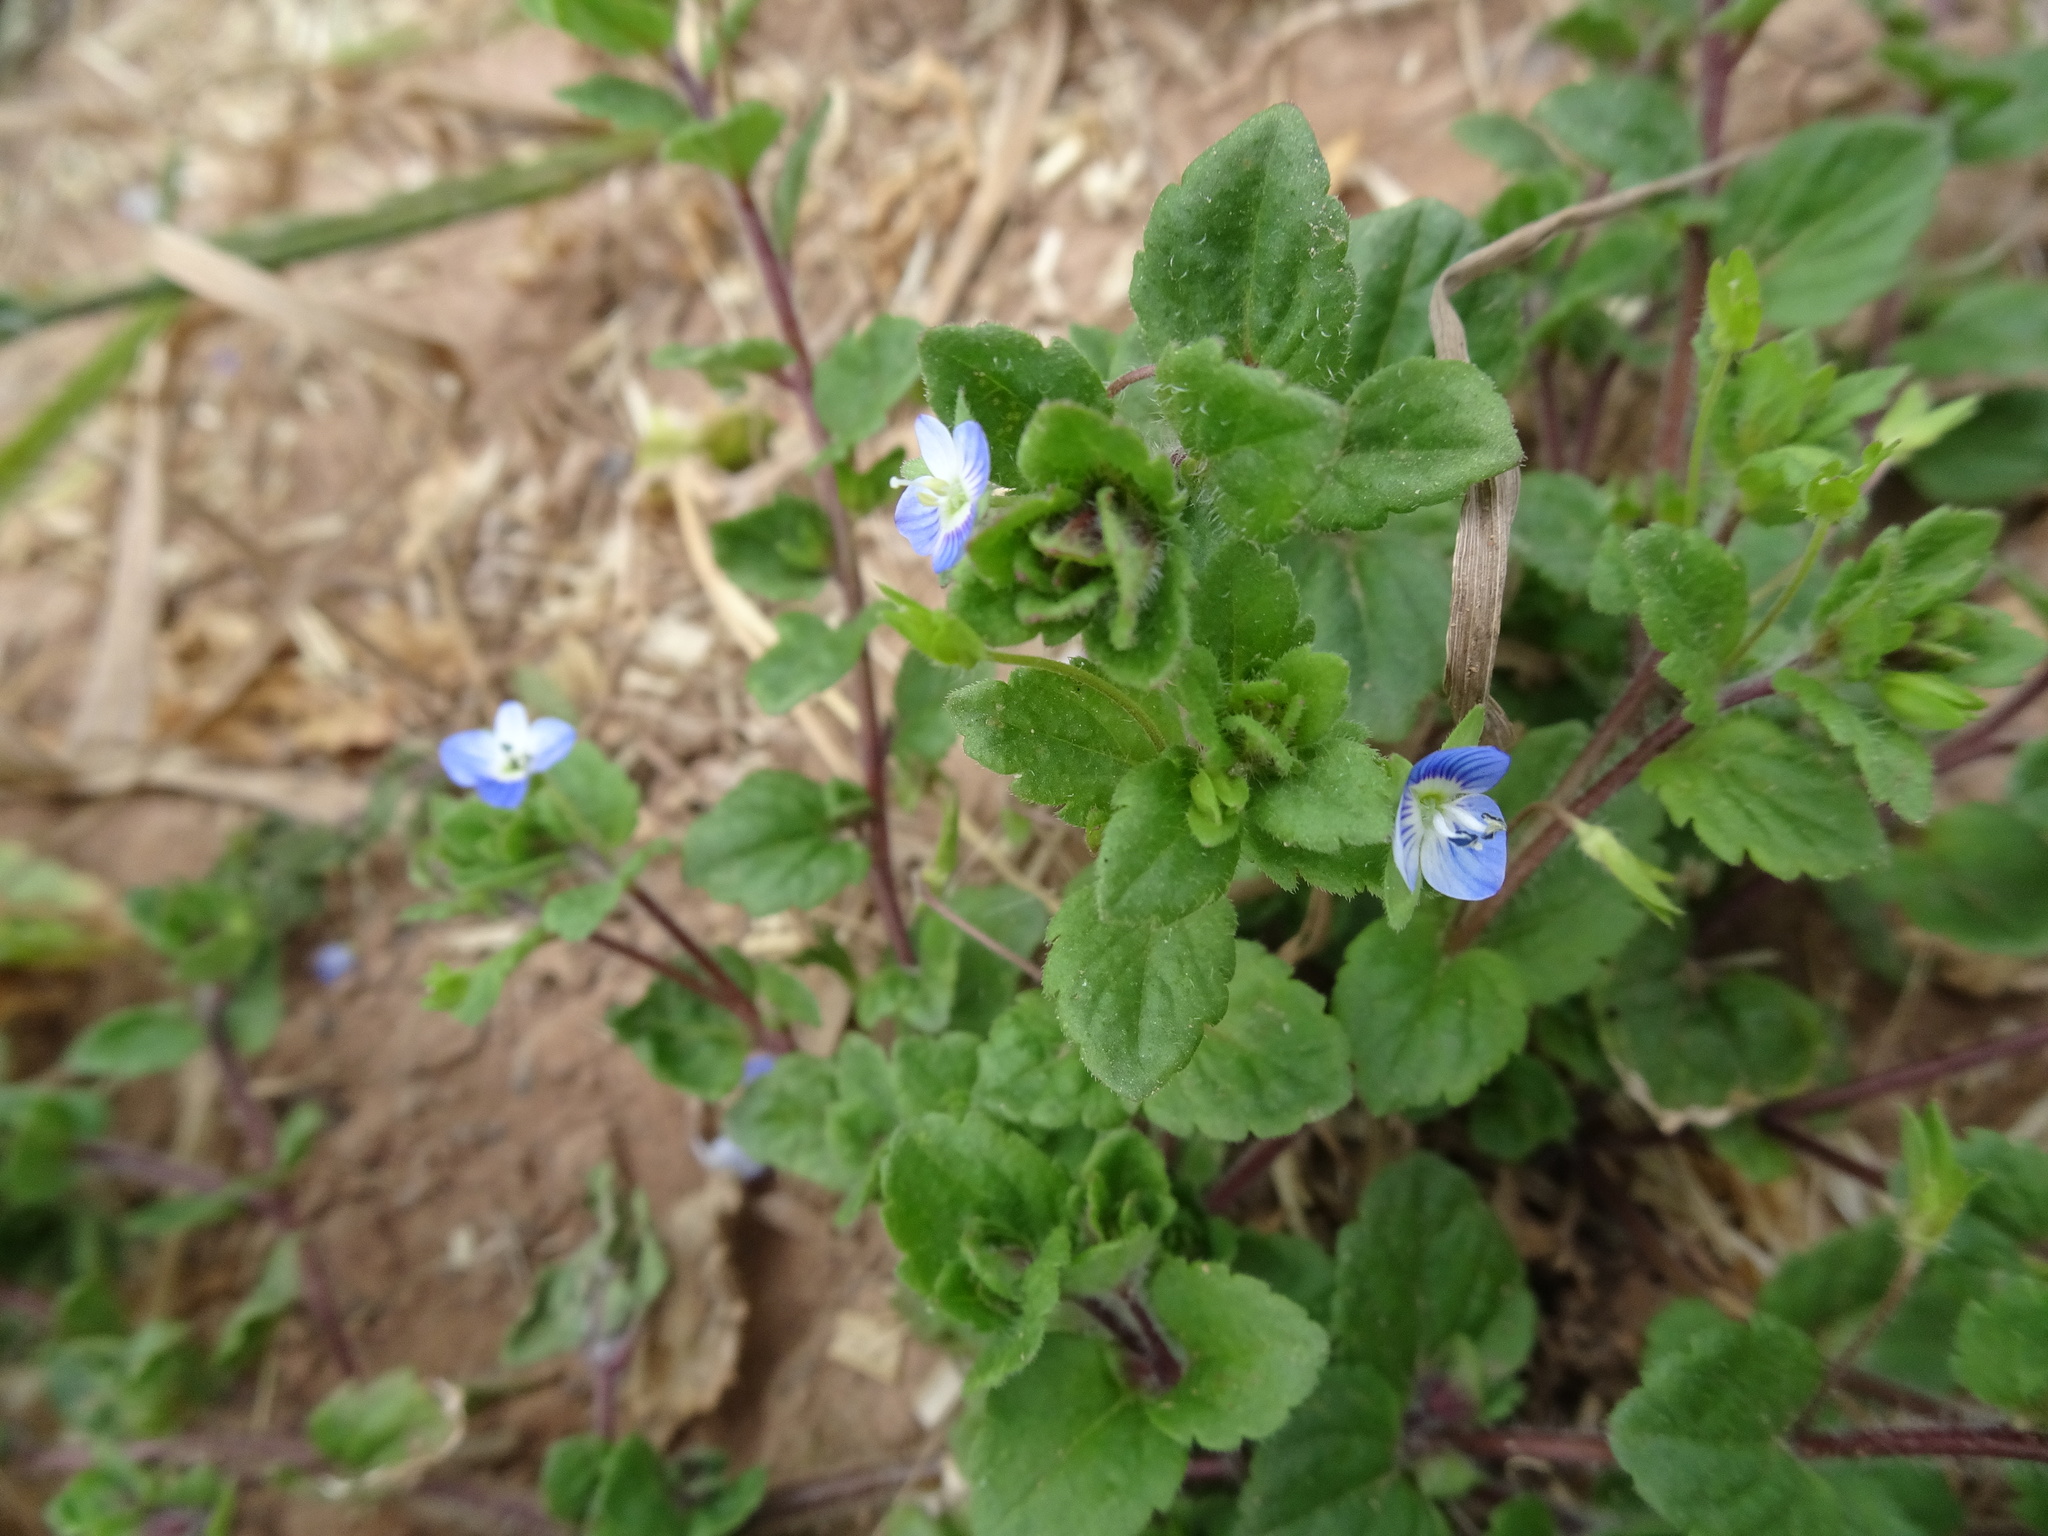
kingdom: Plantae
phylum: Tracheophyta
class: Magnoliopsida
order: Lamiales
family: Plantaginaceae
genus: Veronica
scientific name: Veronica persica
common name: Common field-speedwell
